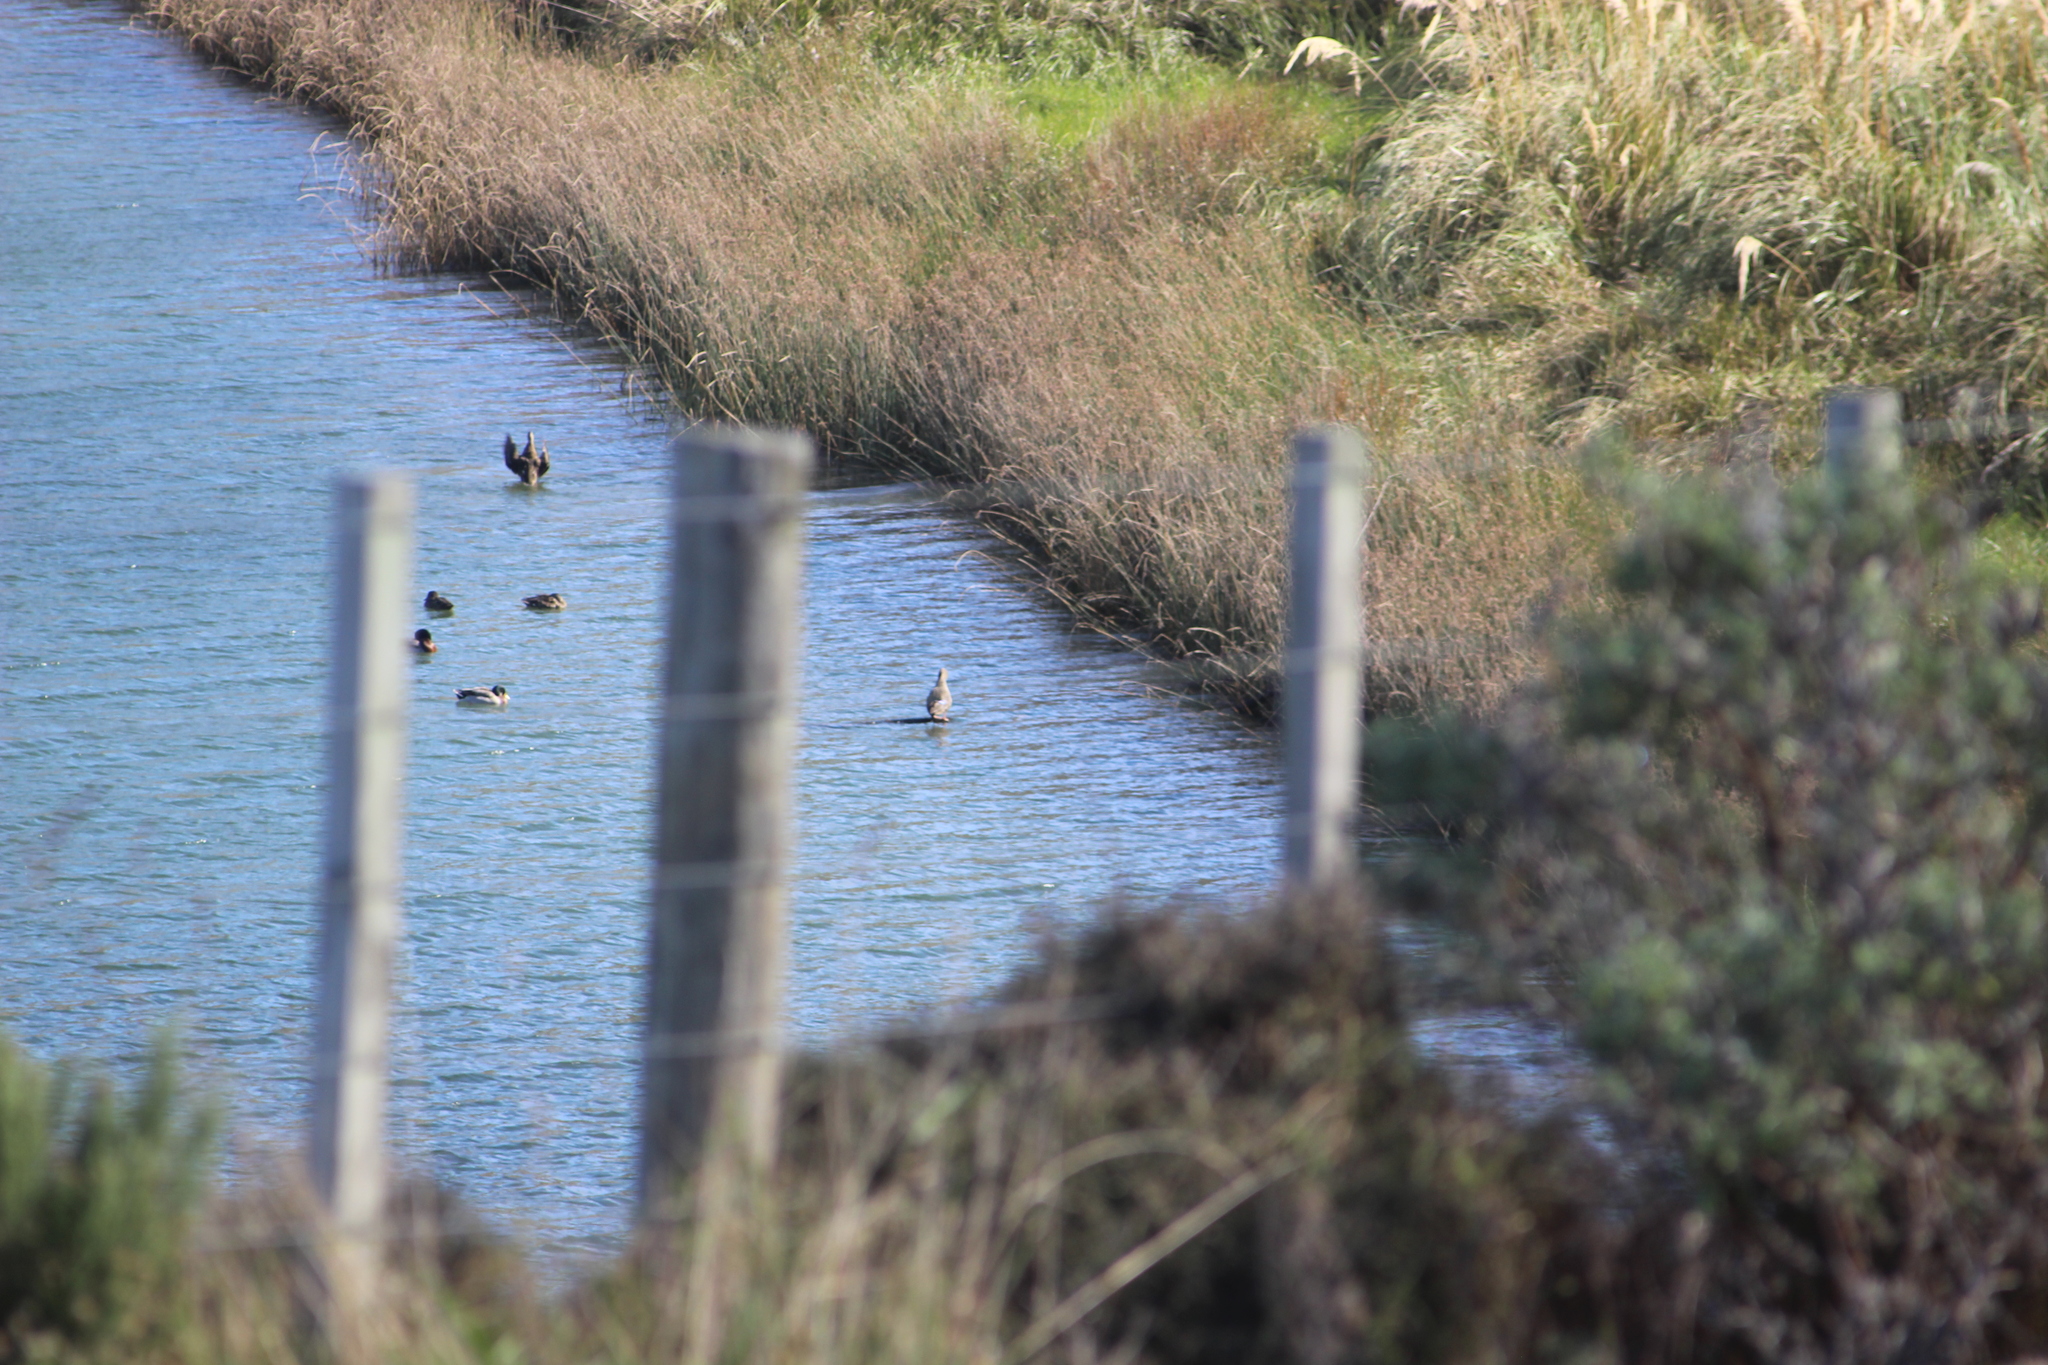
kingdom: Animalia
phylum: Chordata
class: Aves
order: Anseriformes
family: Anatidae
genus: Anas
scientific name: Anas platyrhynchos
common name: Mallard
